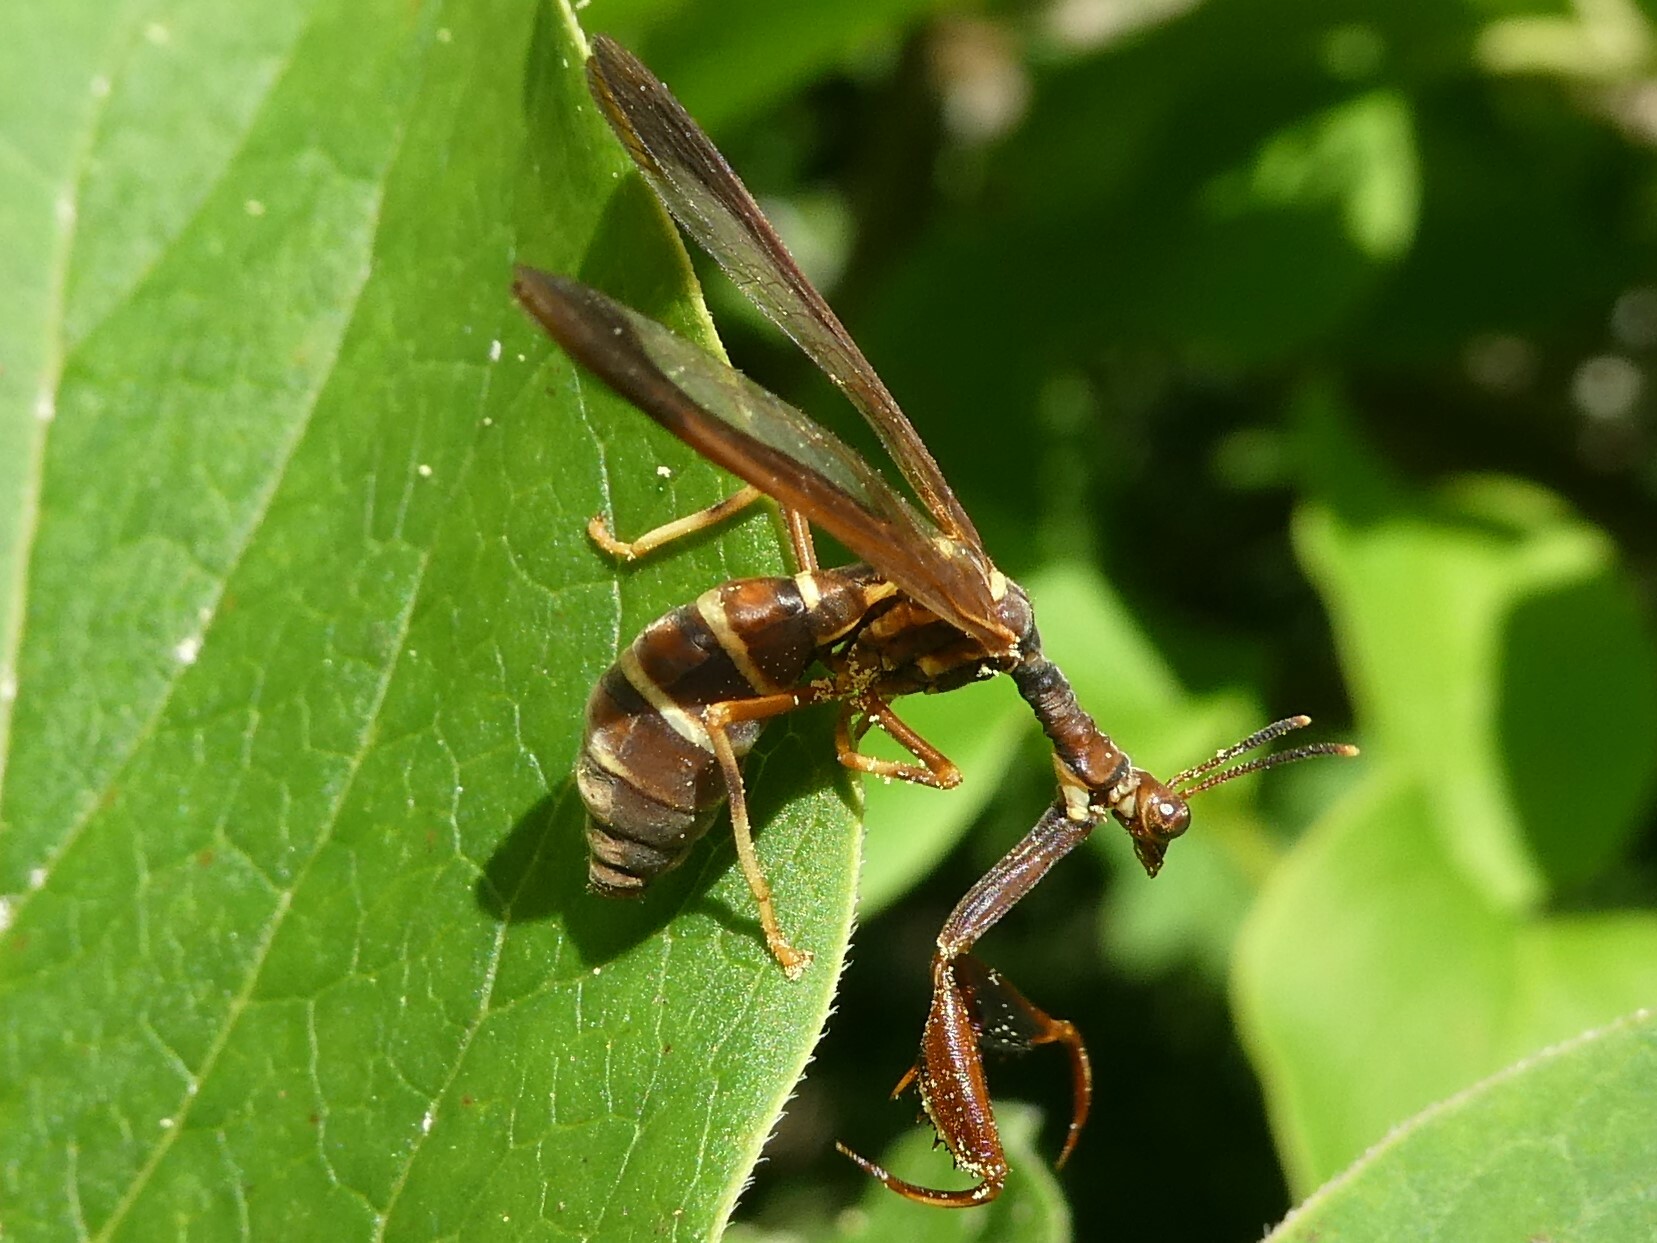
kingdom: Animalia
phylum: Arthropoda
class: Insecta
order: Neuroptera
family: Mantispidae
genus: Climaciella
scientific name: Climaciella brunnea
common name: Brown wasp mantidfly
